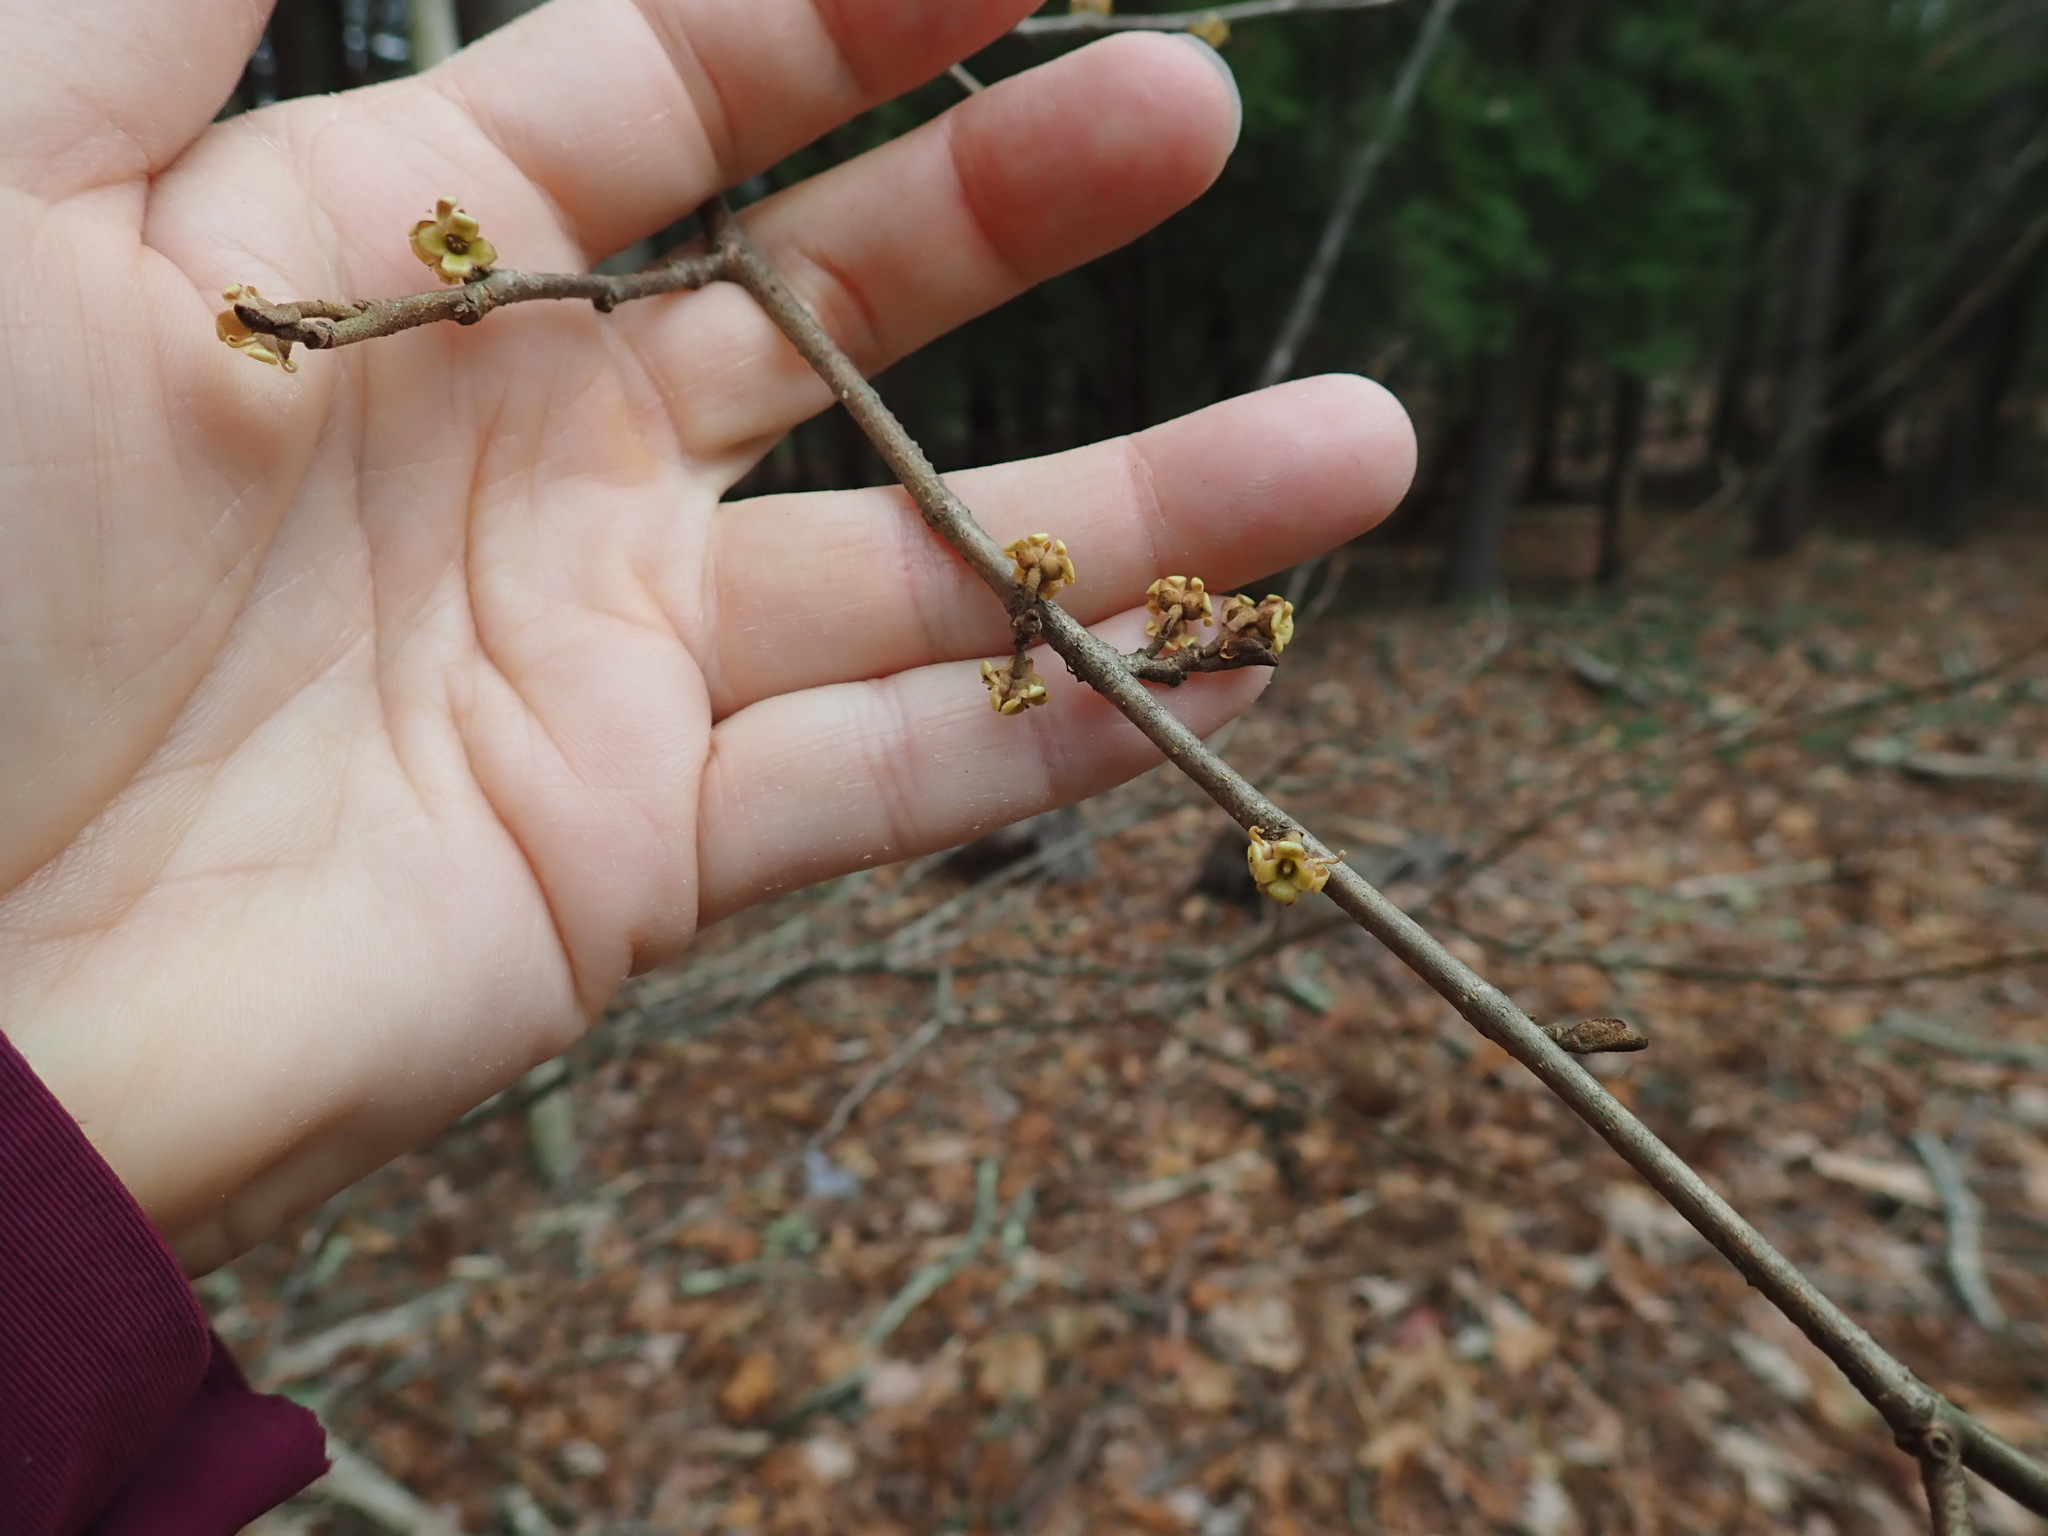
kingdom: Plantae
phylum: Tracheophyta
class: Magnoliopsida
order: Saxifragales
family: Hamamelidaceae
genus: Hamamelis
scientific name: Hamamelis virginiana
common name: Witch-hazel
